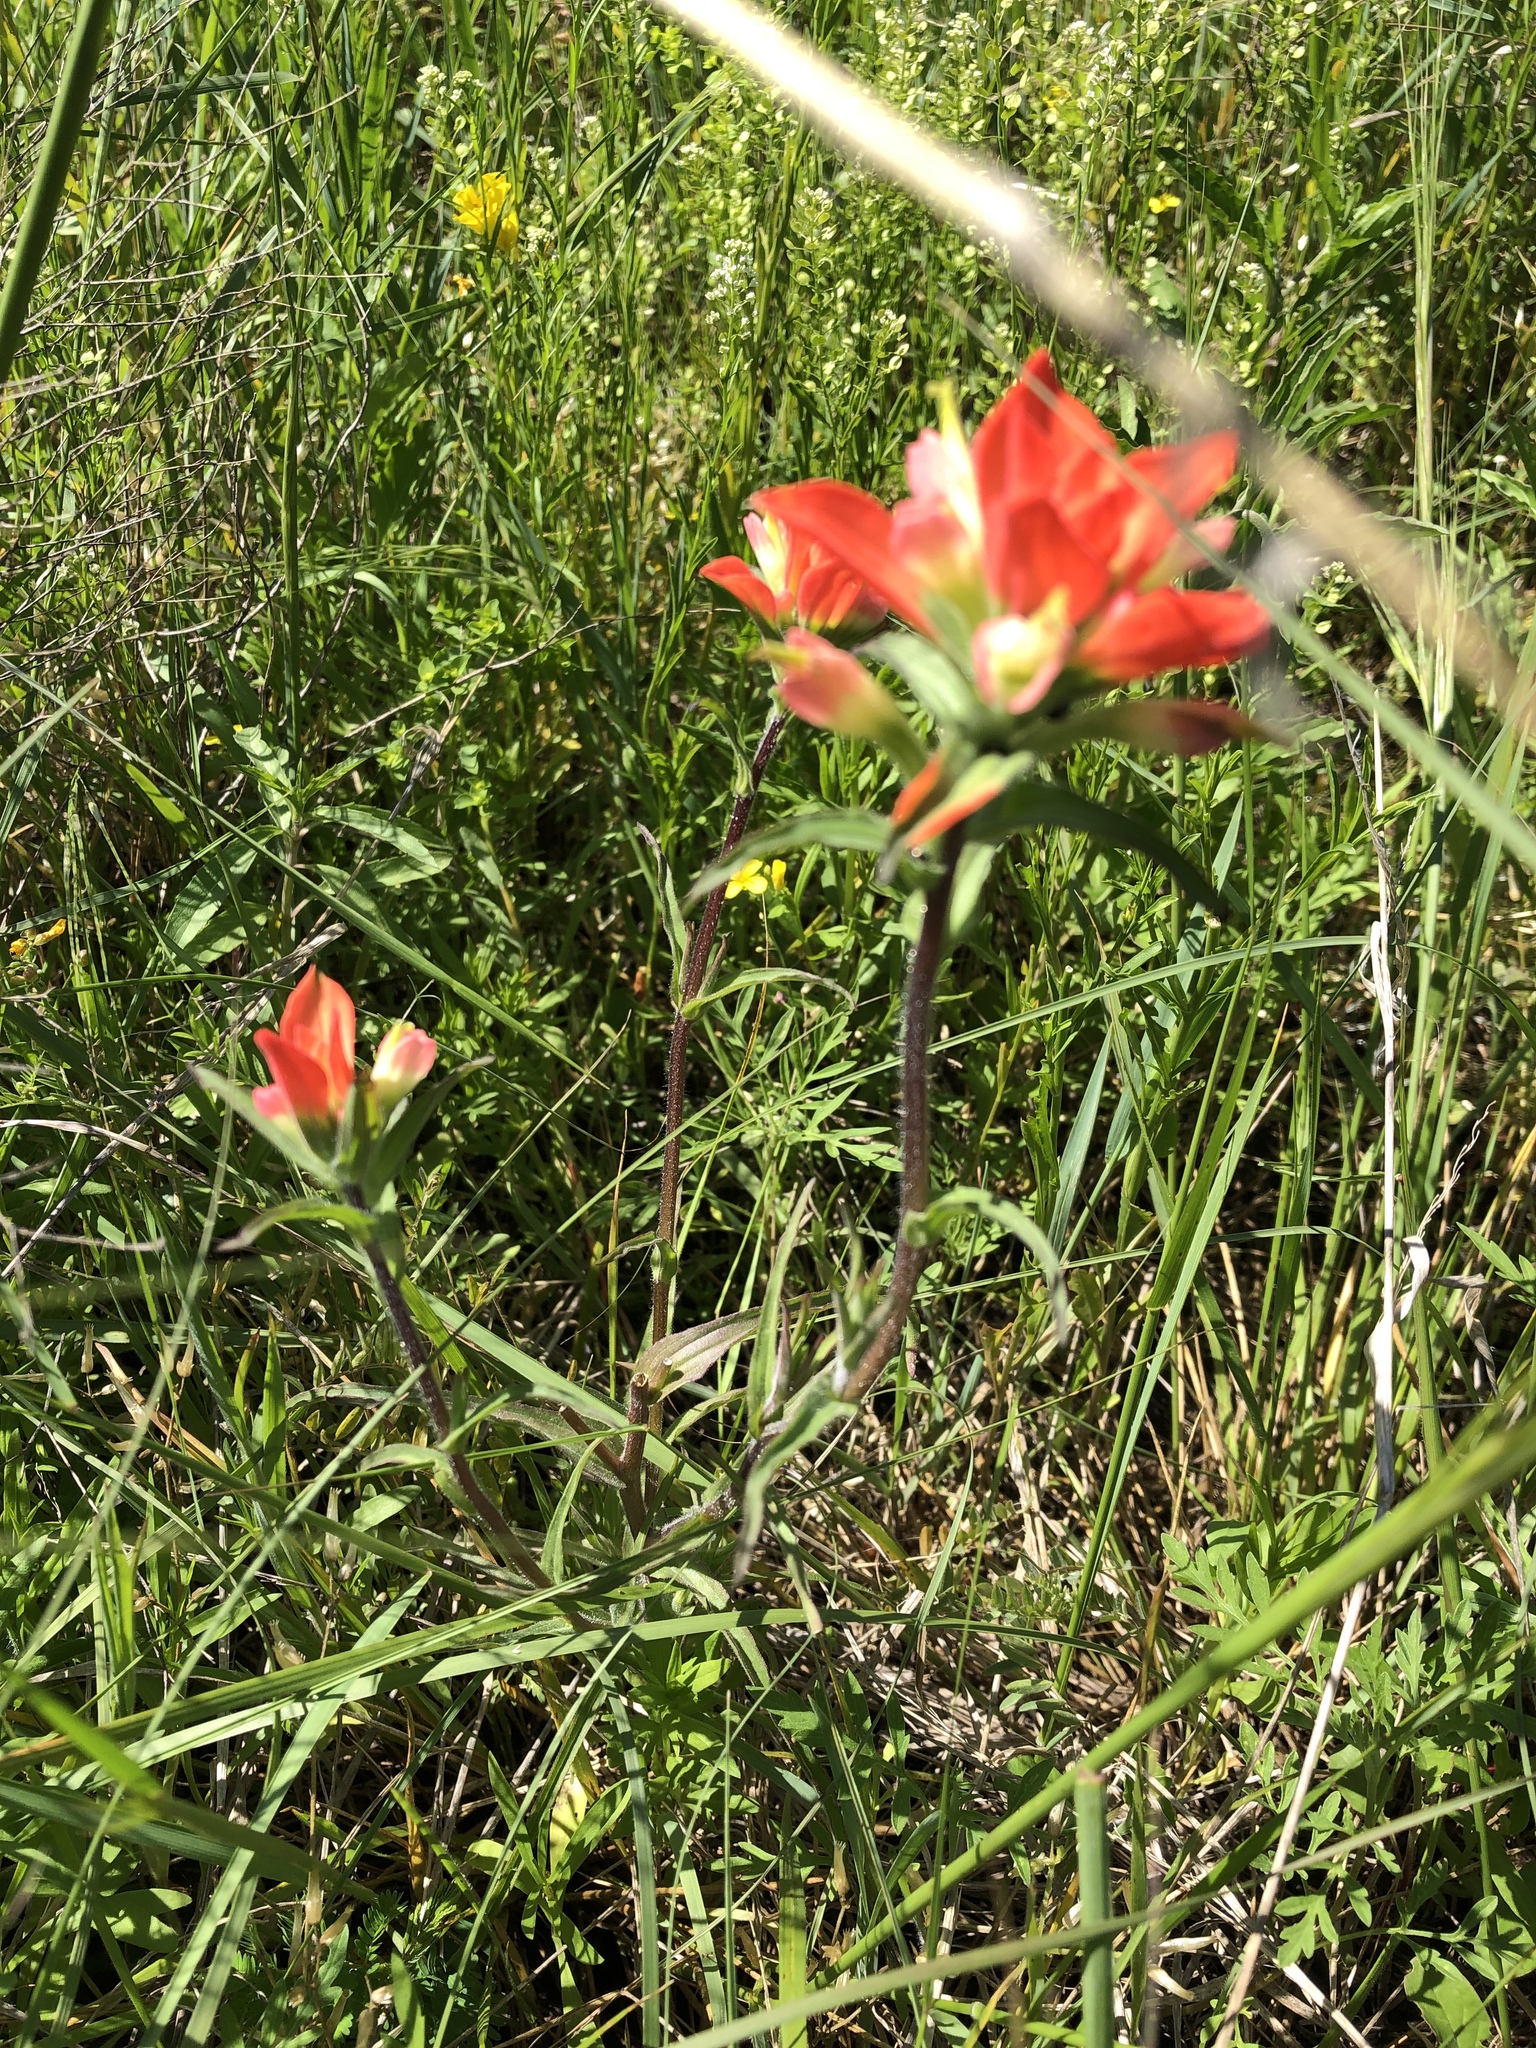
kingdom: Plantae
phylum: Tracheophyta
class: Magnoliopsida
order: Lamiales
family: Orobanchaceae
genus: Castilleja
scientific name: Castilleja indivisa
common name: Texas paintbrush
